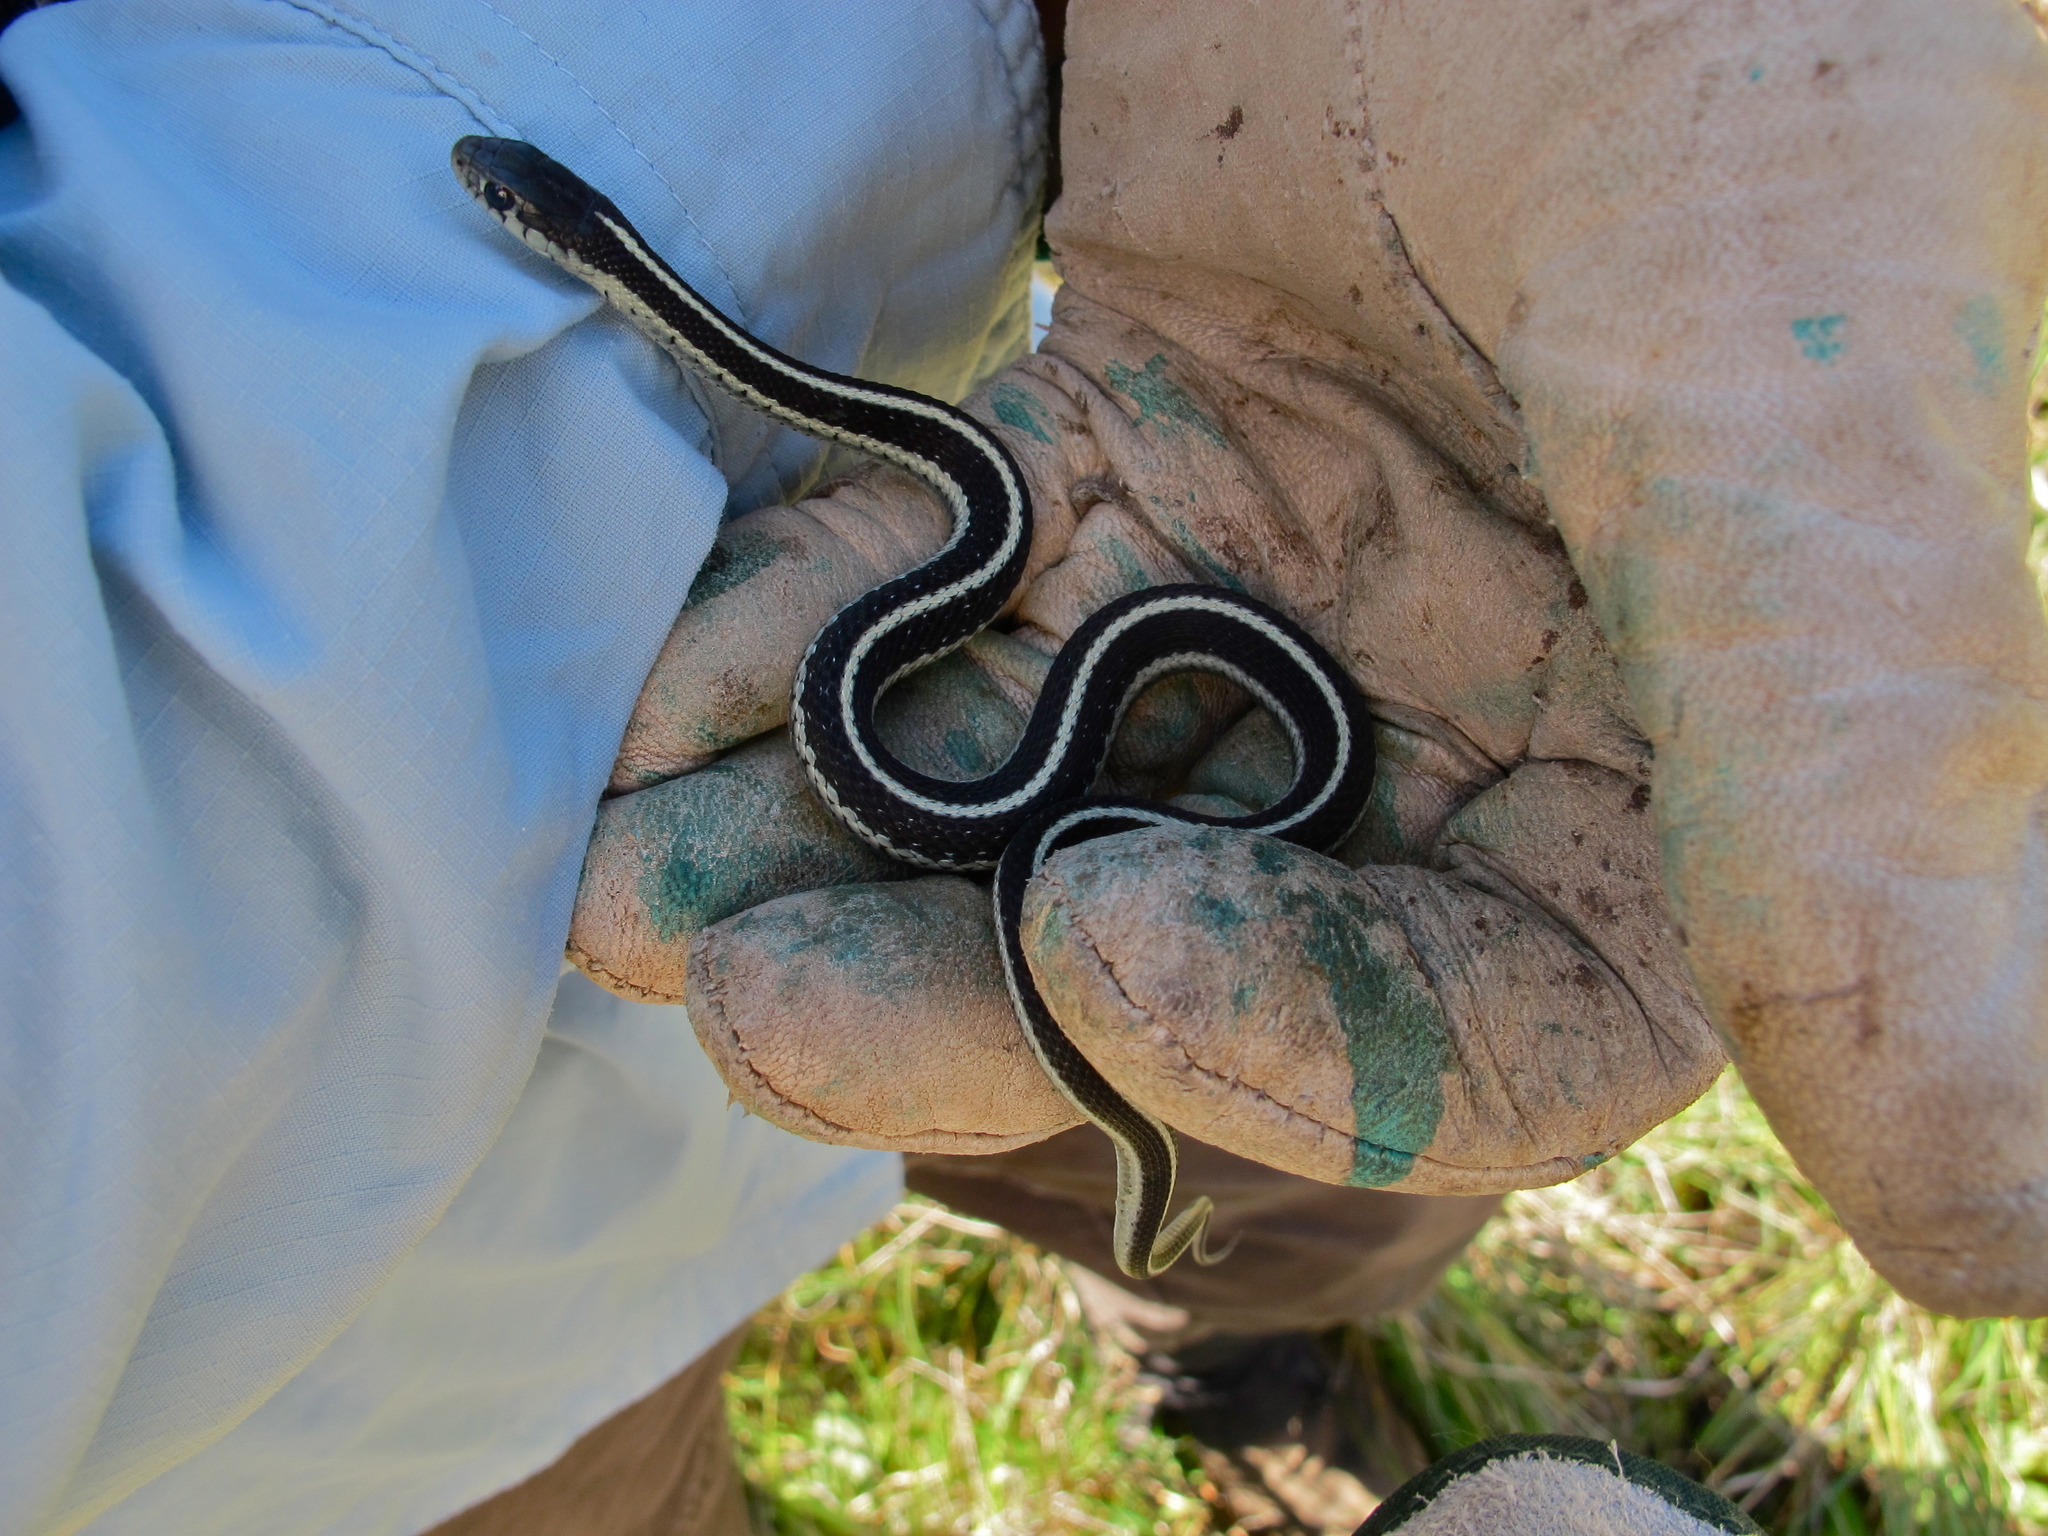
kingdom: Animalia
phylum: Chordata
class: Squamata
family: Colubridae
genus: Thamnophis
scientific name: Thamnophis elegans
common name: Western terrestrial garter snake
